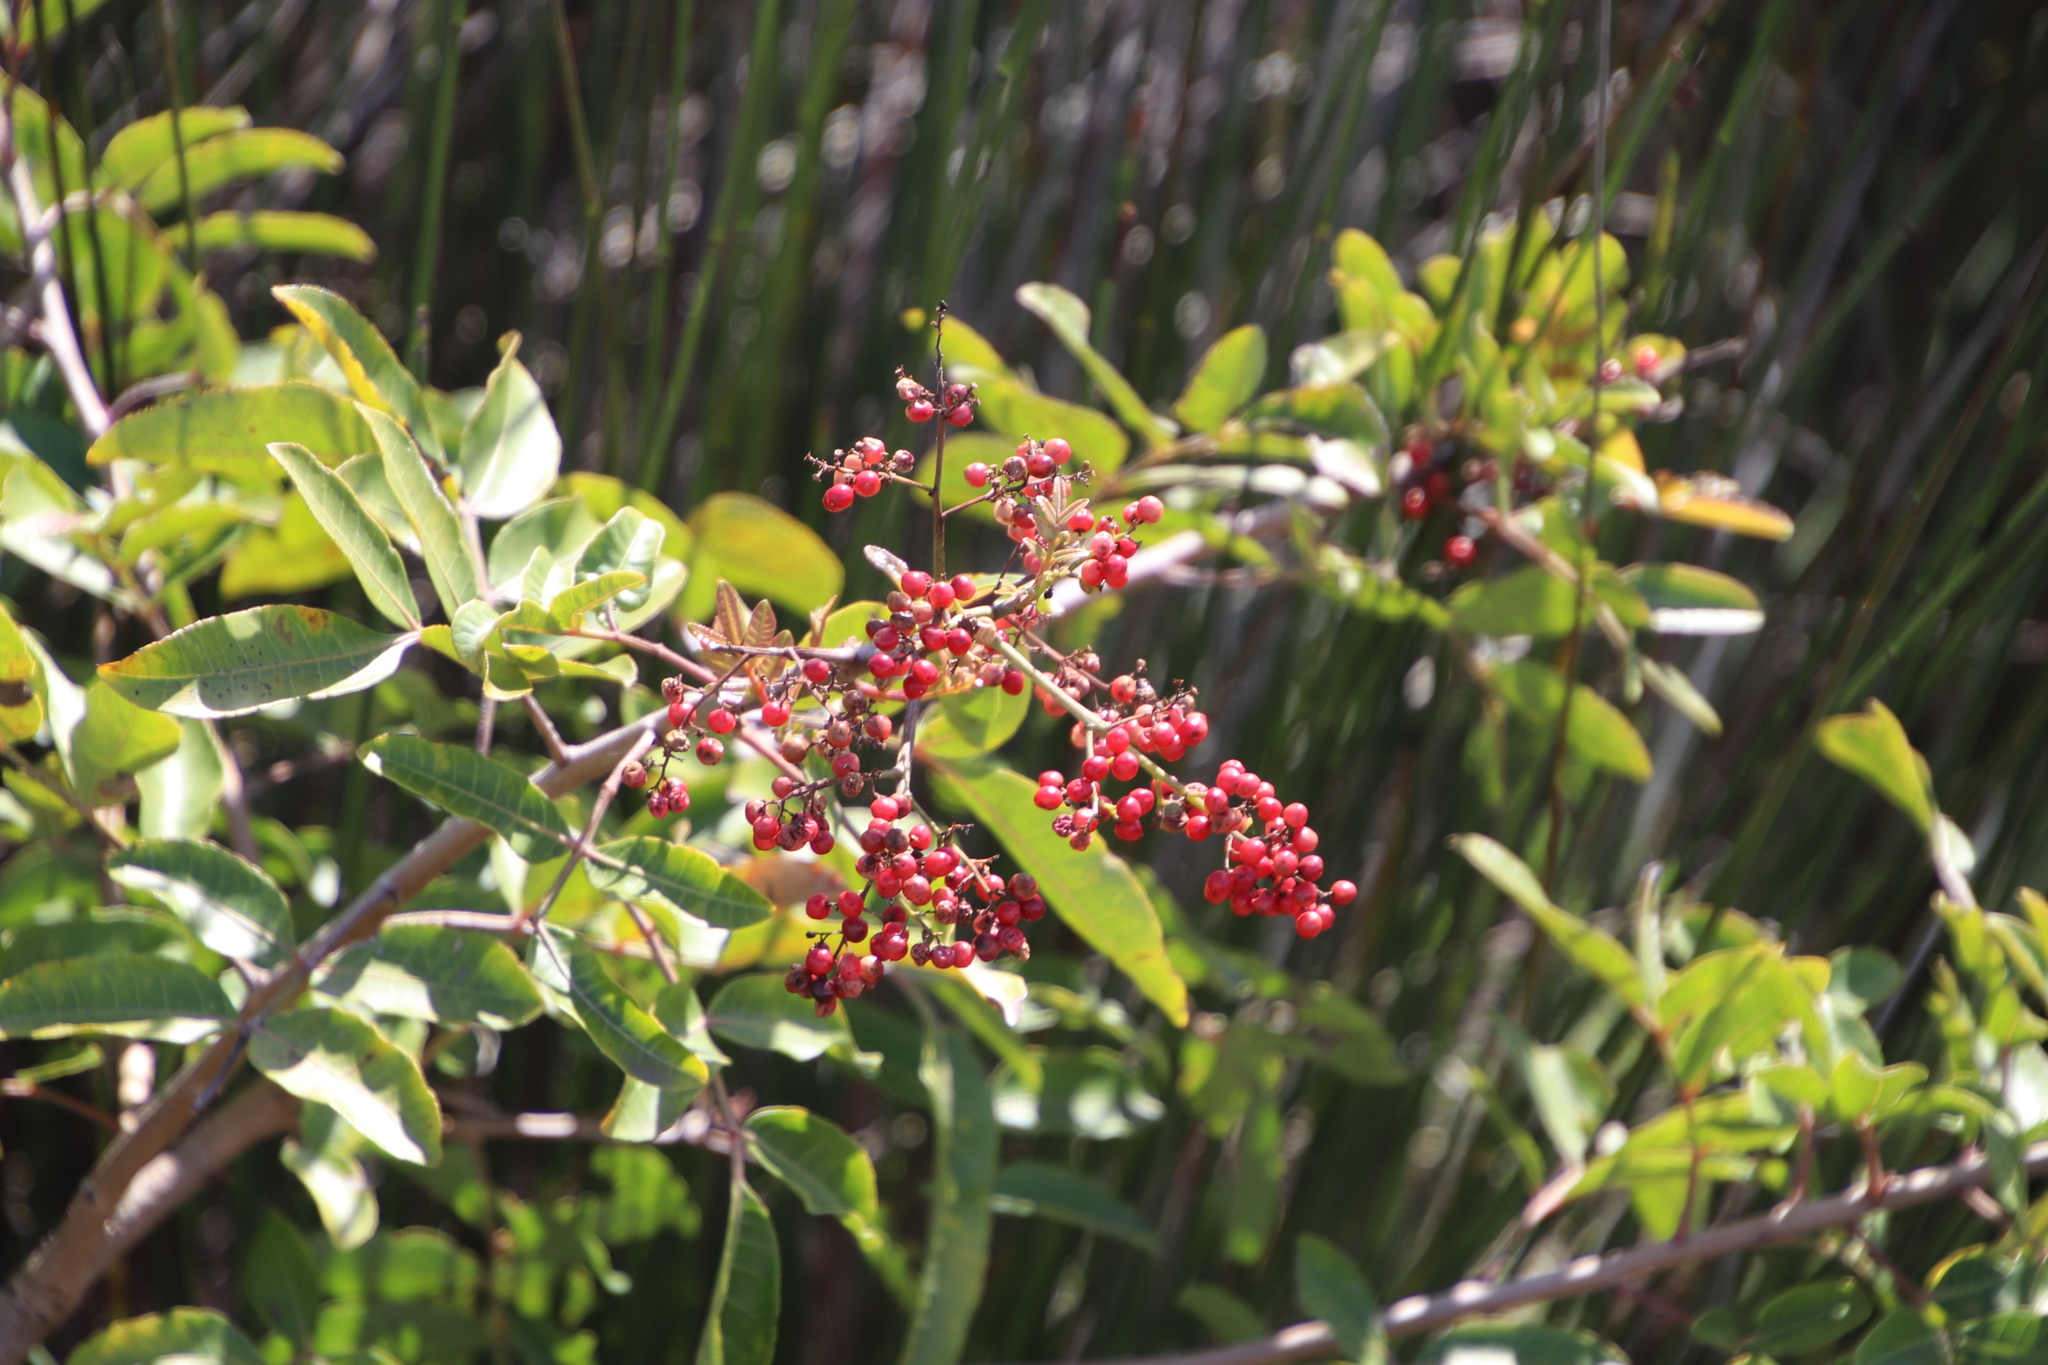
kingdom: Plantae
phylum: Tracheophyta
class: Magnoliopsida
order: Sapindales
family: Anacardiaceae
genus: Schinus
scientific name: Schinus terebinthifolia
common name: Brazilian peppertree
